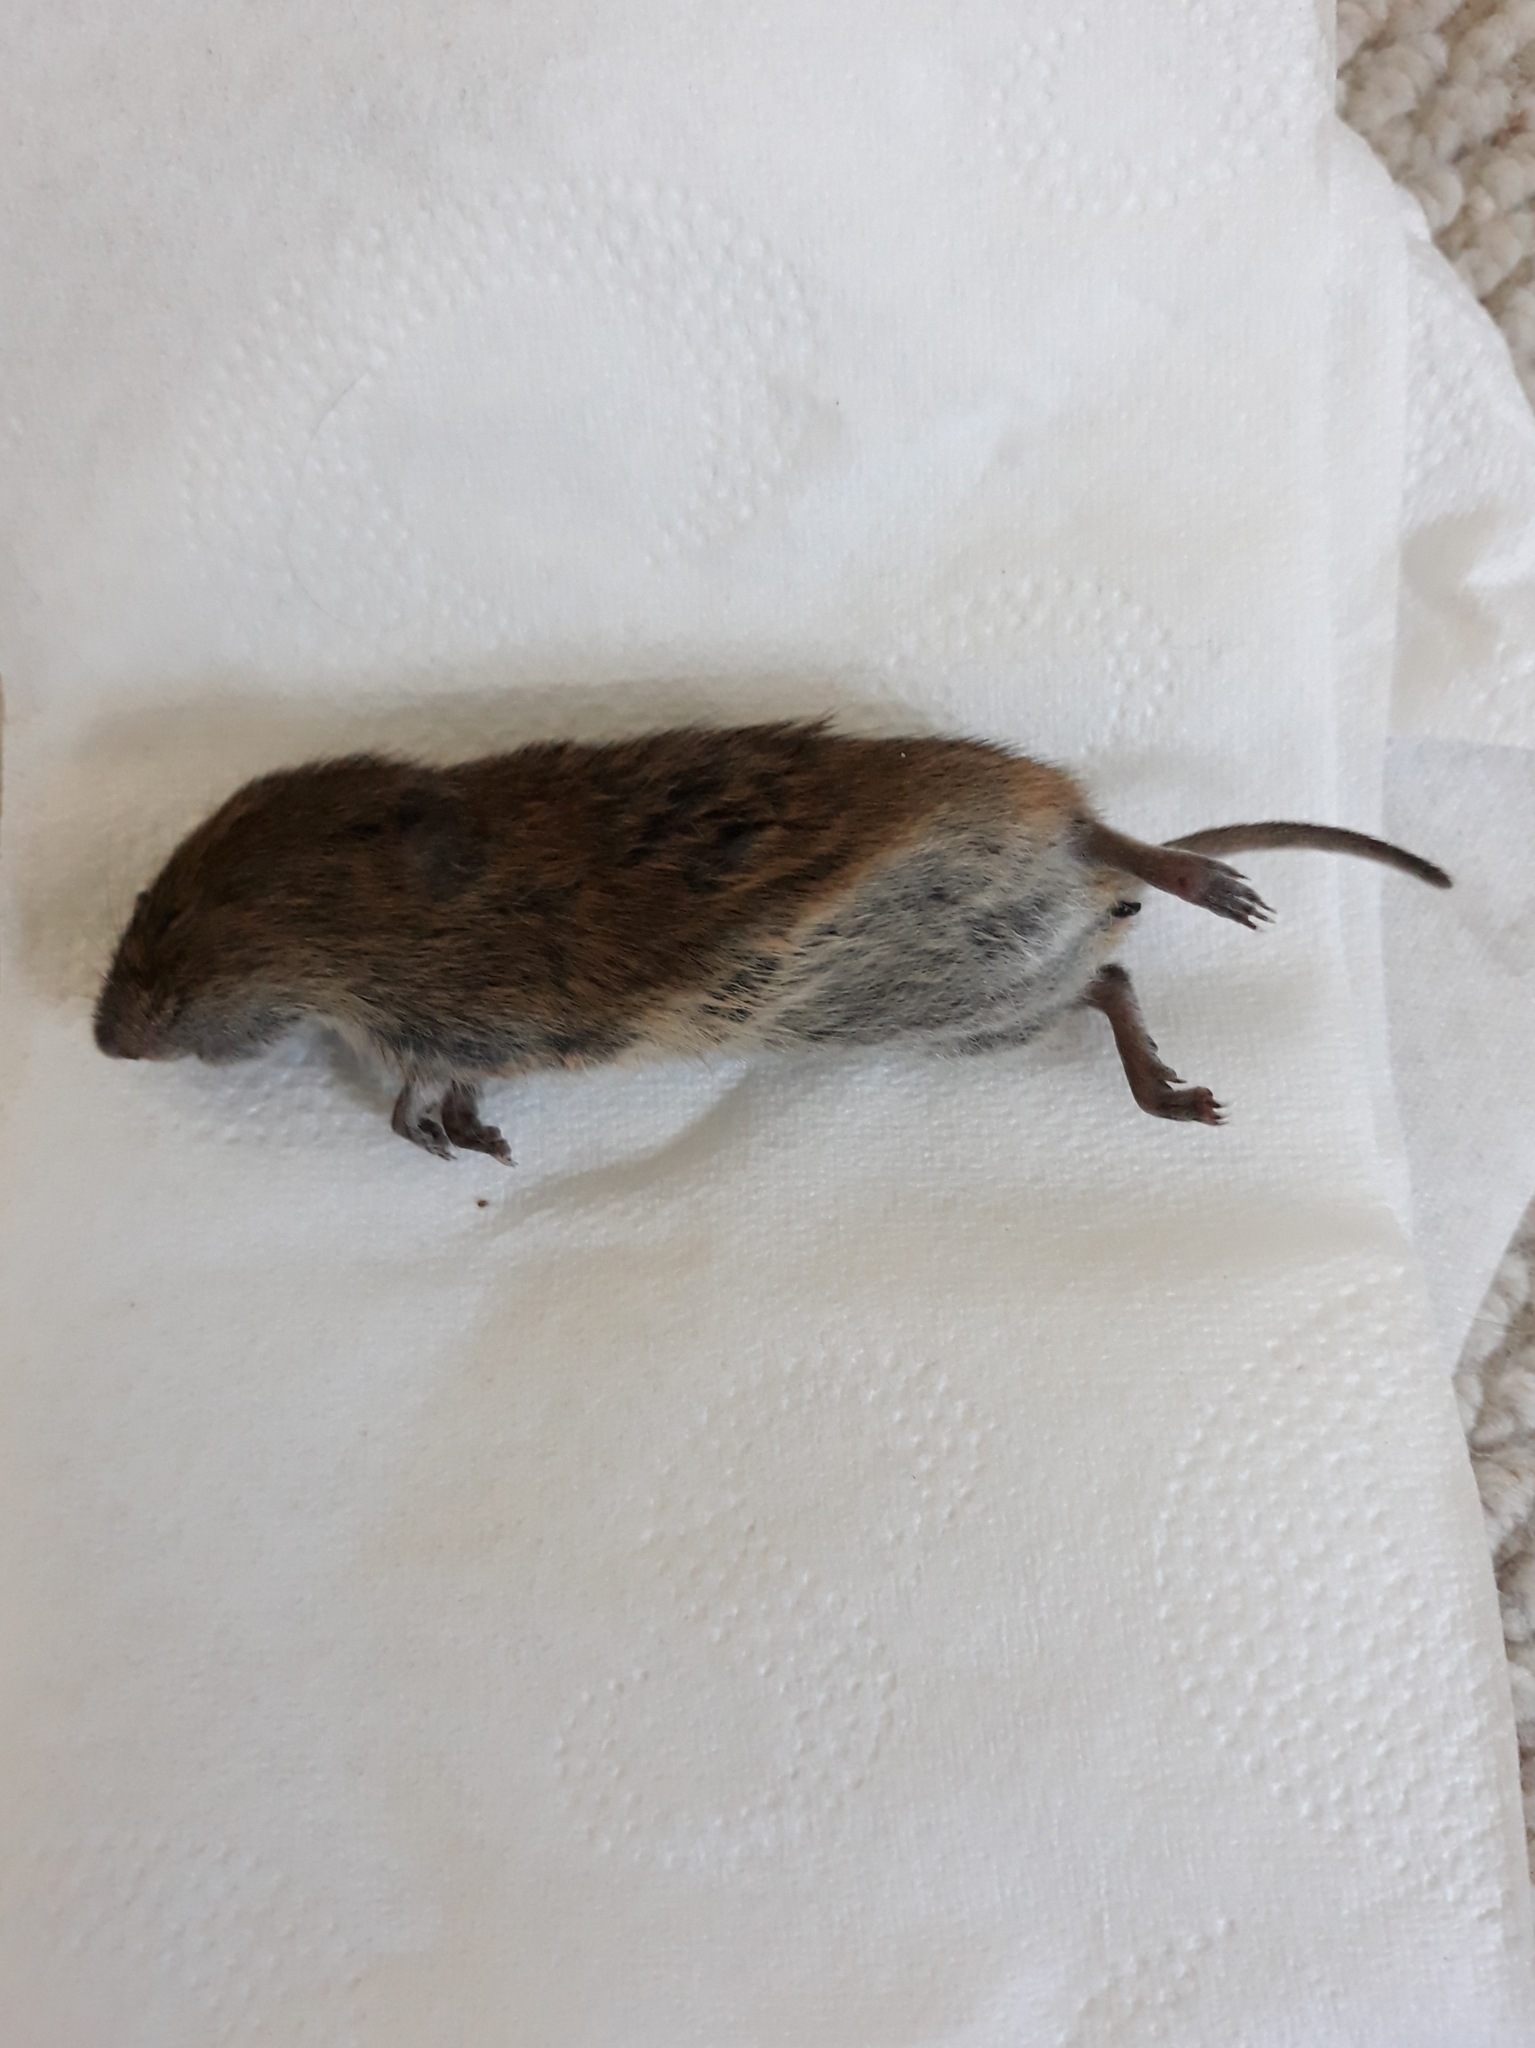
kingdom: Animalia
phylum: Chordata
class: Mammalia
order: Rodentia
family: Cricetidae
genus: Microtus
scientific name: Microtus agrestis
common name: Field vole
